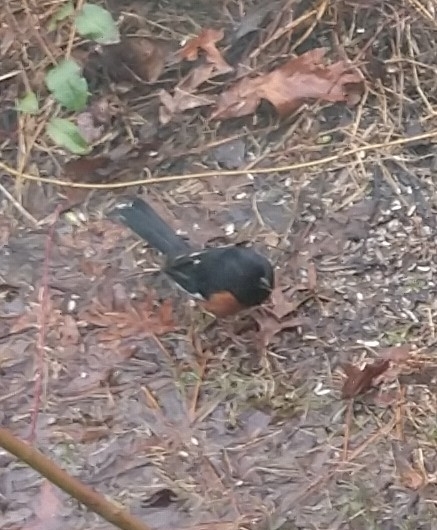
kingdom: Animalia
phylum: Chordata
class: Aves
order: Passeriformes
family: Passerellidae
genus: Pipilo
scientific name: Pipilo erythrophthalmus
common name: Eastern towhee
